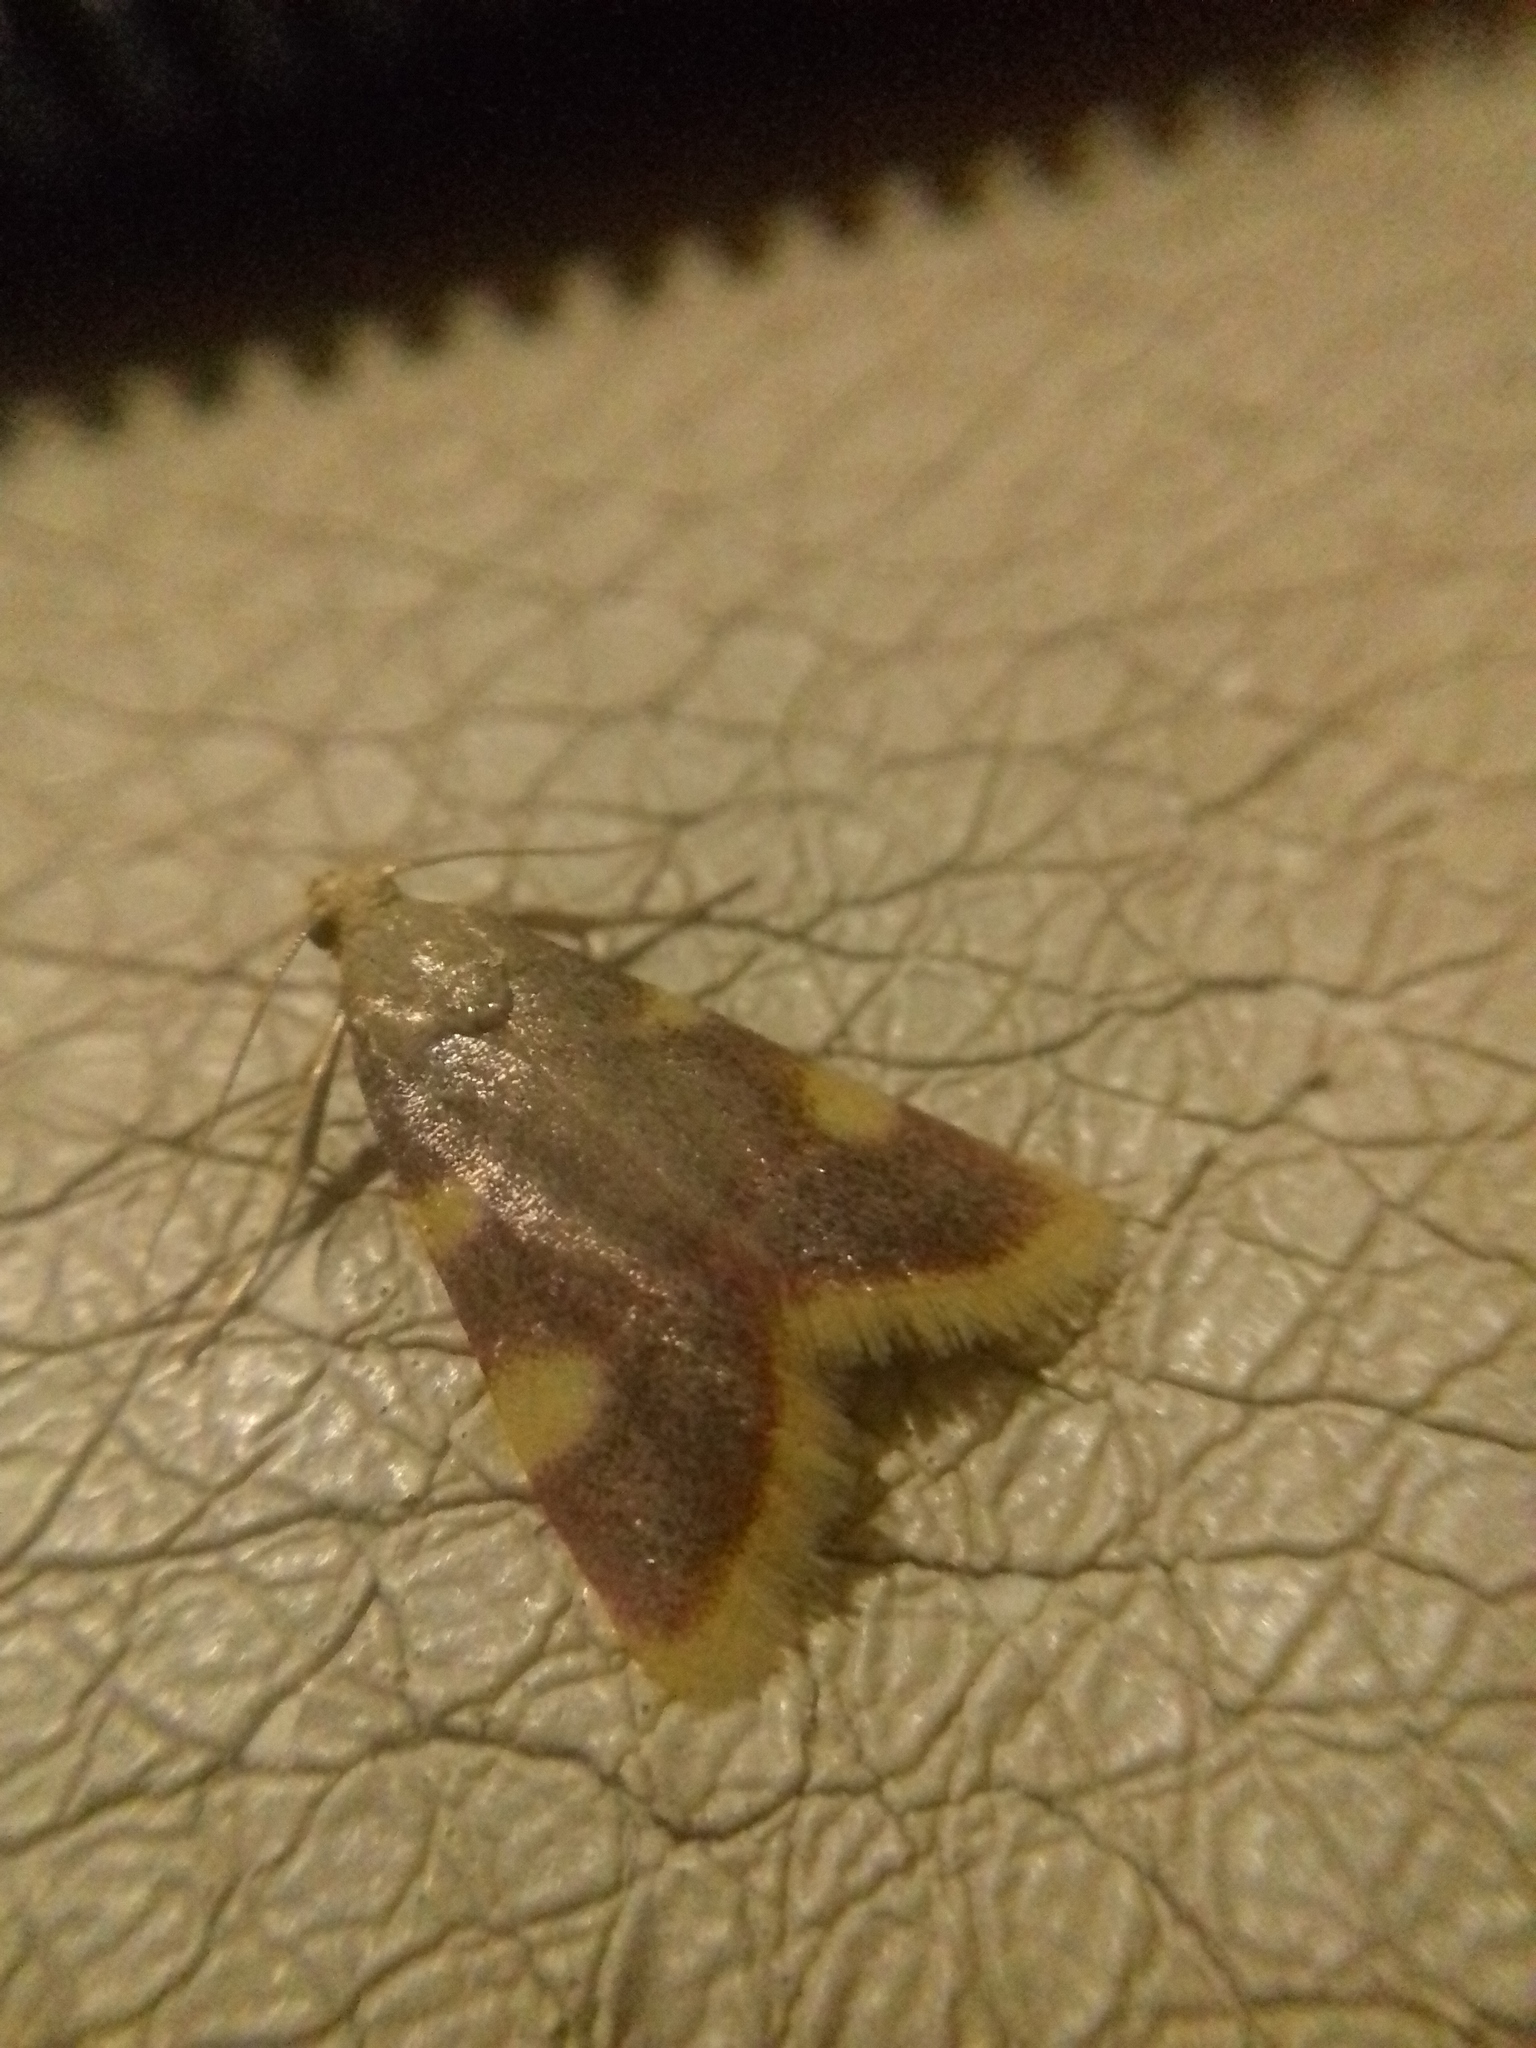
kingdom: Animalia
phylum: Arthropoda
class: Insecta
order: Lepidoptera
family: Pyralidae
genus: Hypsopygia
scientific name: Hypsopygia costalis
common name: Gold triangle
